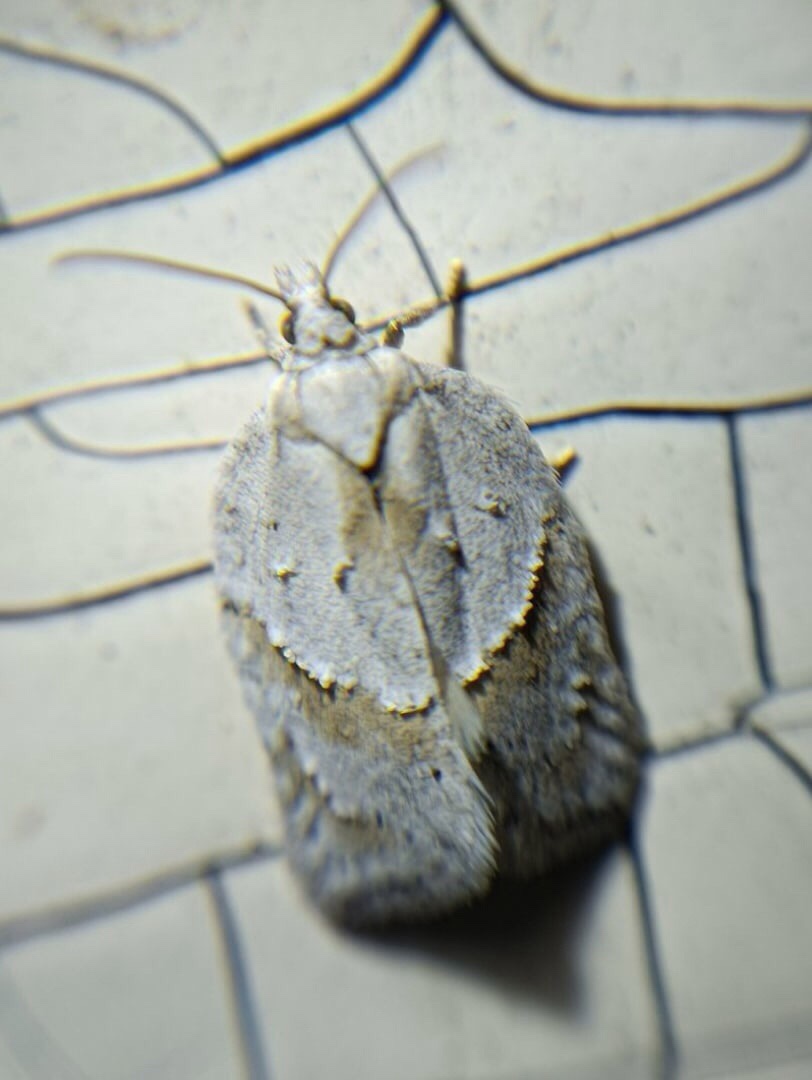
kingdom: Animalia
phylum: Arthropoda
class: Insecta
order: Lepidoptera
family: Tortricidae
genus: Acleris
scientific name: Acleris logiana
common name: Grey birch button
